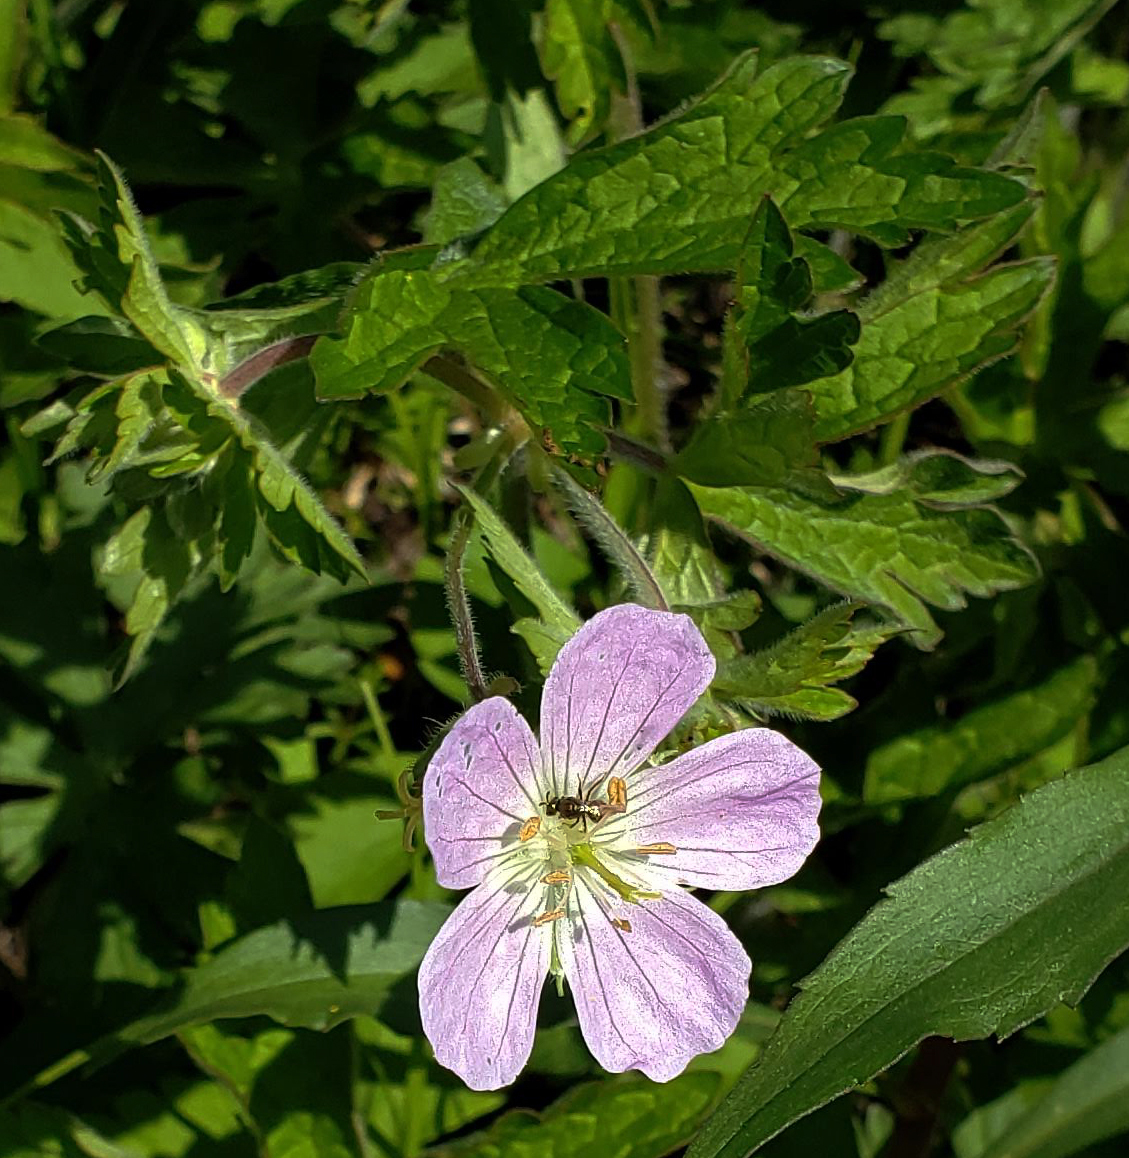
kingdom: Plantae
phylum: Tracheophyta
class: Magnoliopsida
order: Geraniales
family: Geraniaceae
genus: Geranium
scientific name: Geranium maculatum
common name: Spotted geranium
